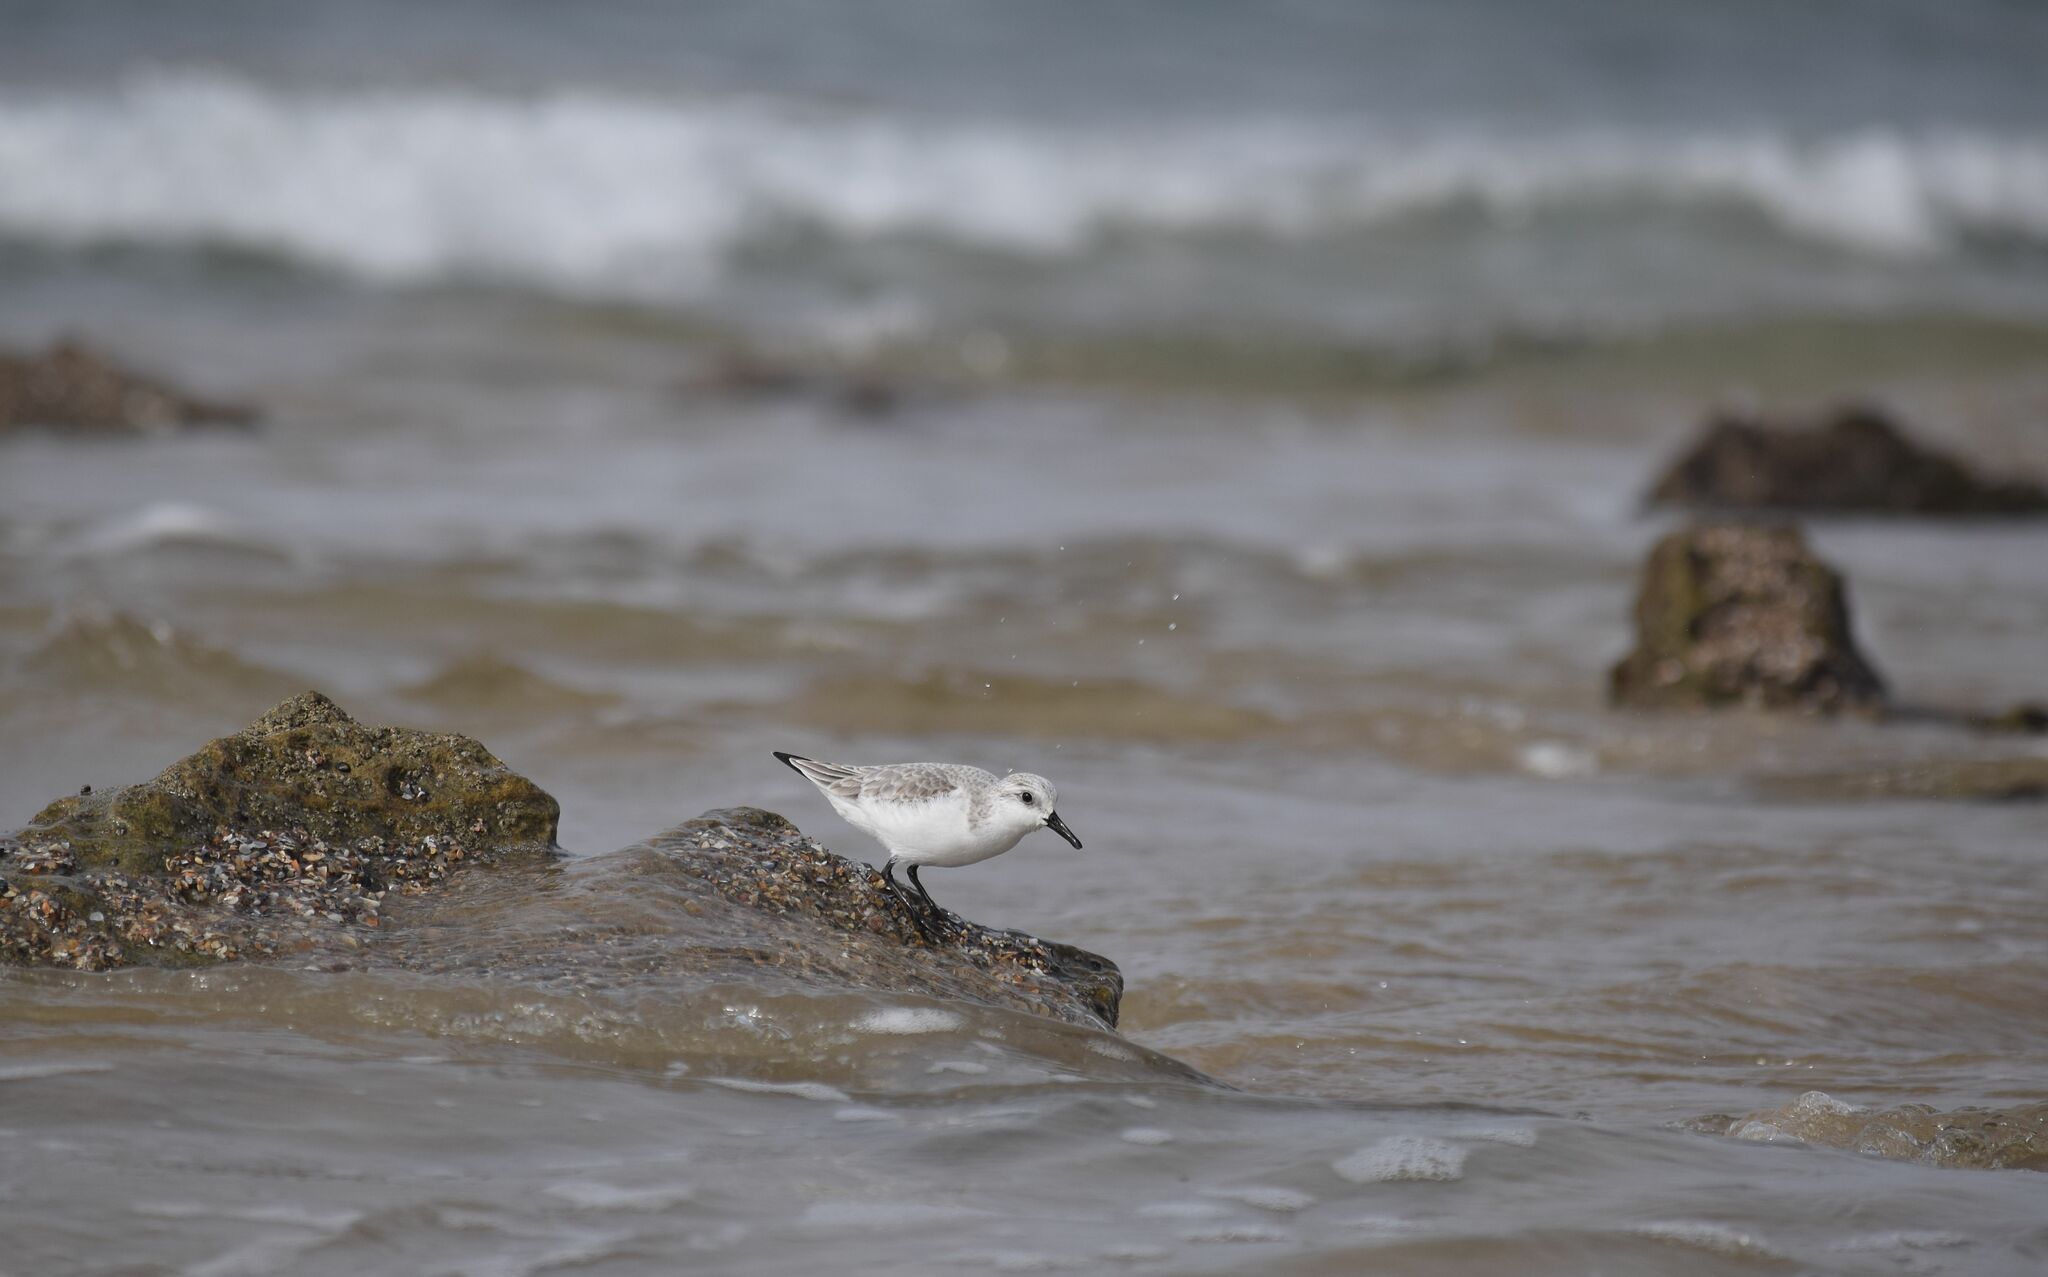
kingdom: Animalia
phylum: Chordata
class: Aves
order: Charadriiformes
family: Scolopacidae
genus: Calidris
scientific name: Calidris alba
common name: Sanderling
